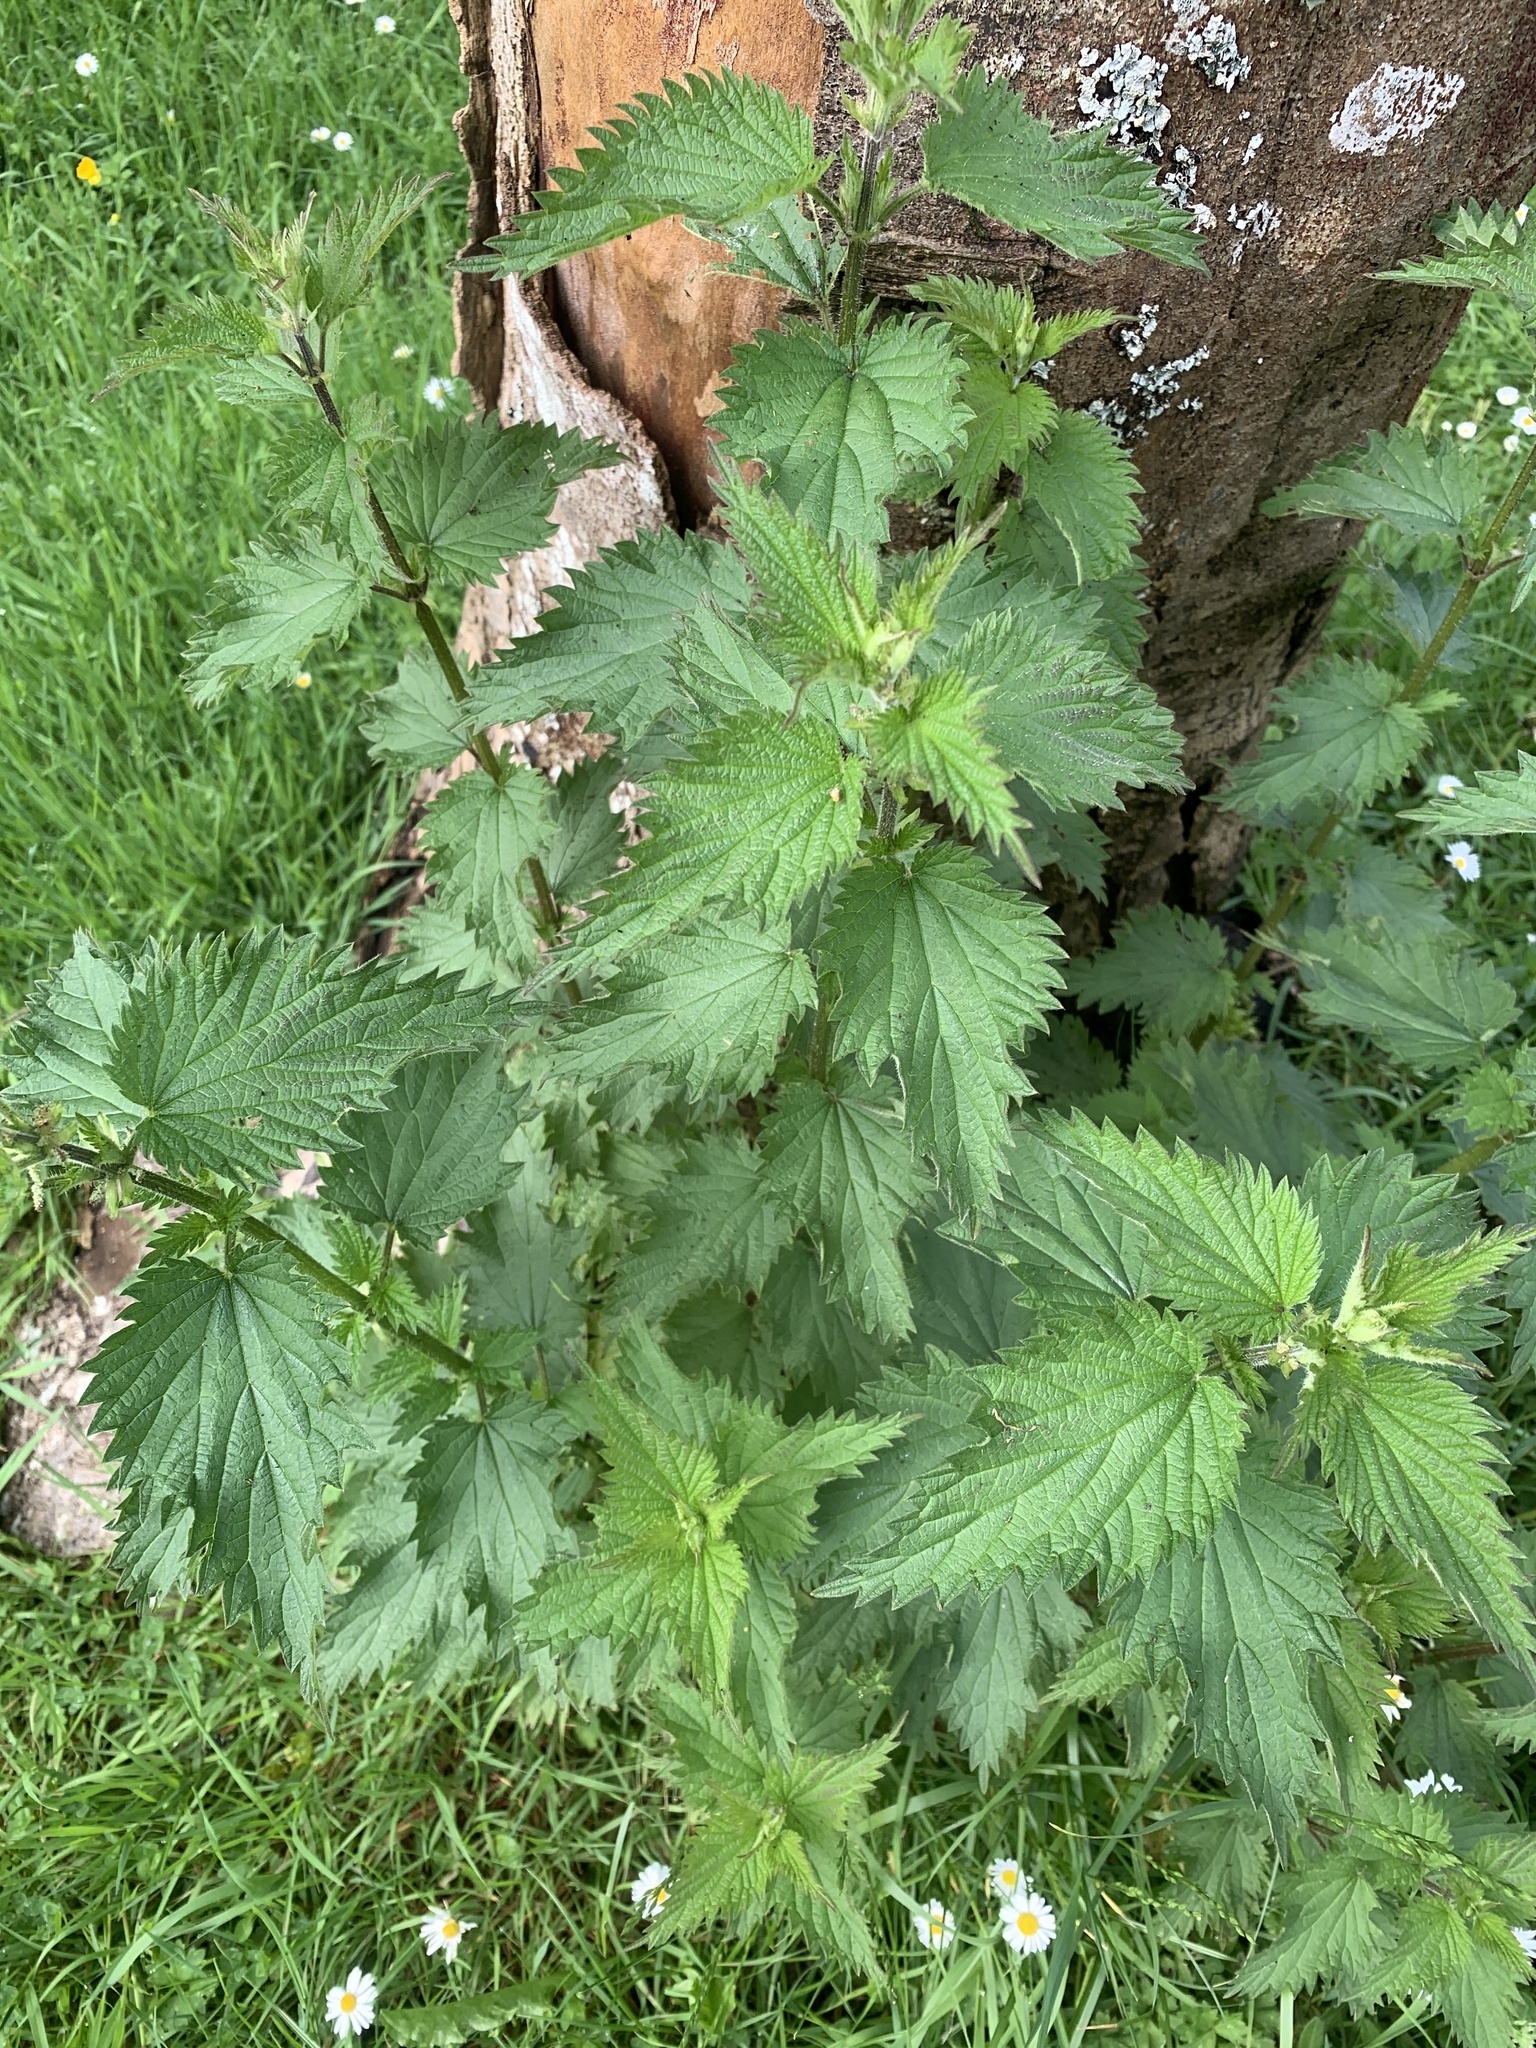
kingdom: Plantae
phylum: Tracheophyta
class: Magnoliopsida
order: Rosales
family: Urticaceae
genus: Urtica
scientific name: Urtica dioica
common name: Common nettle
